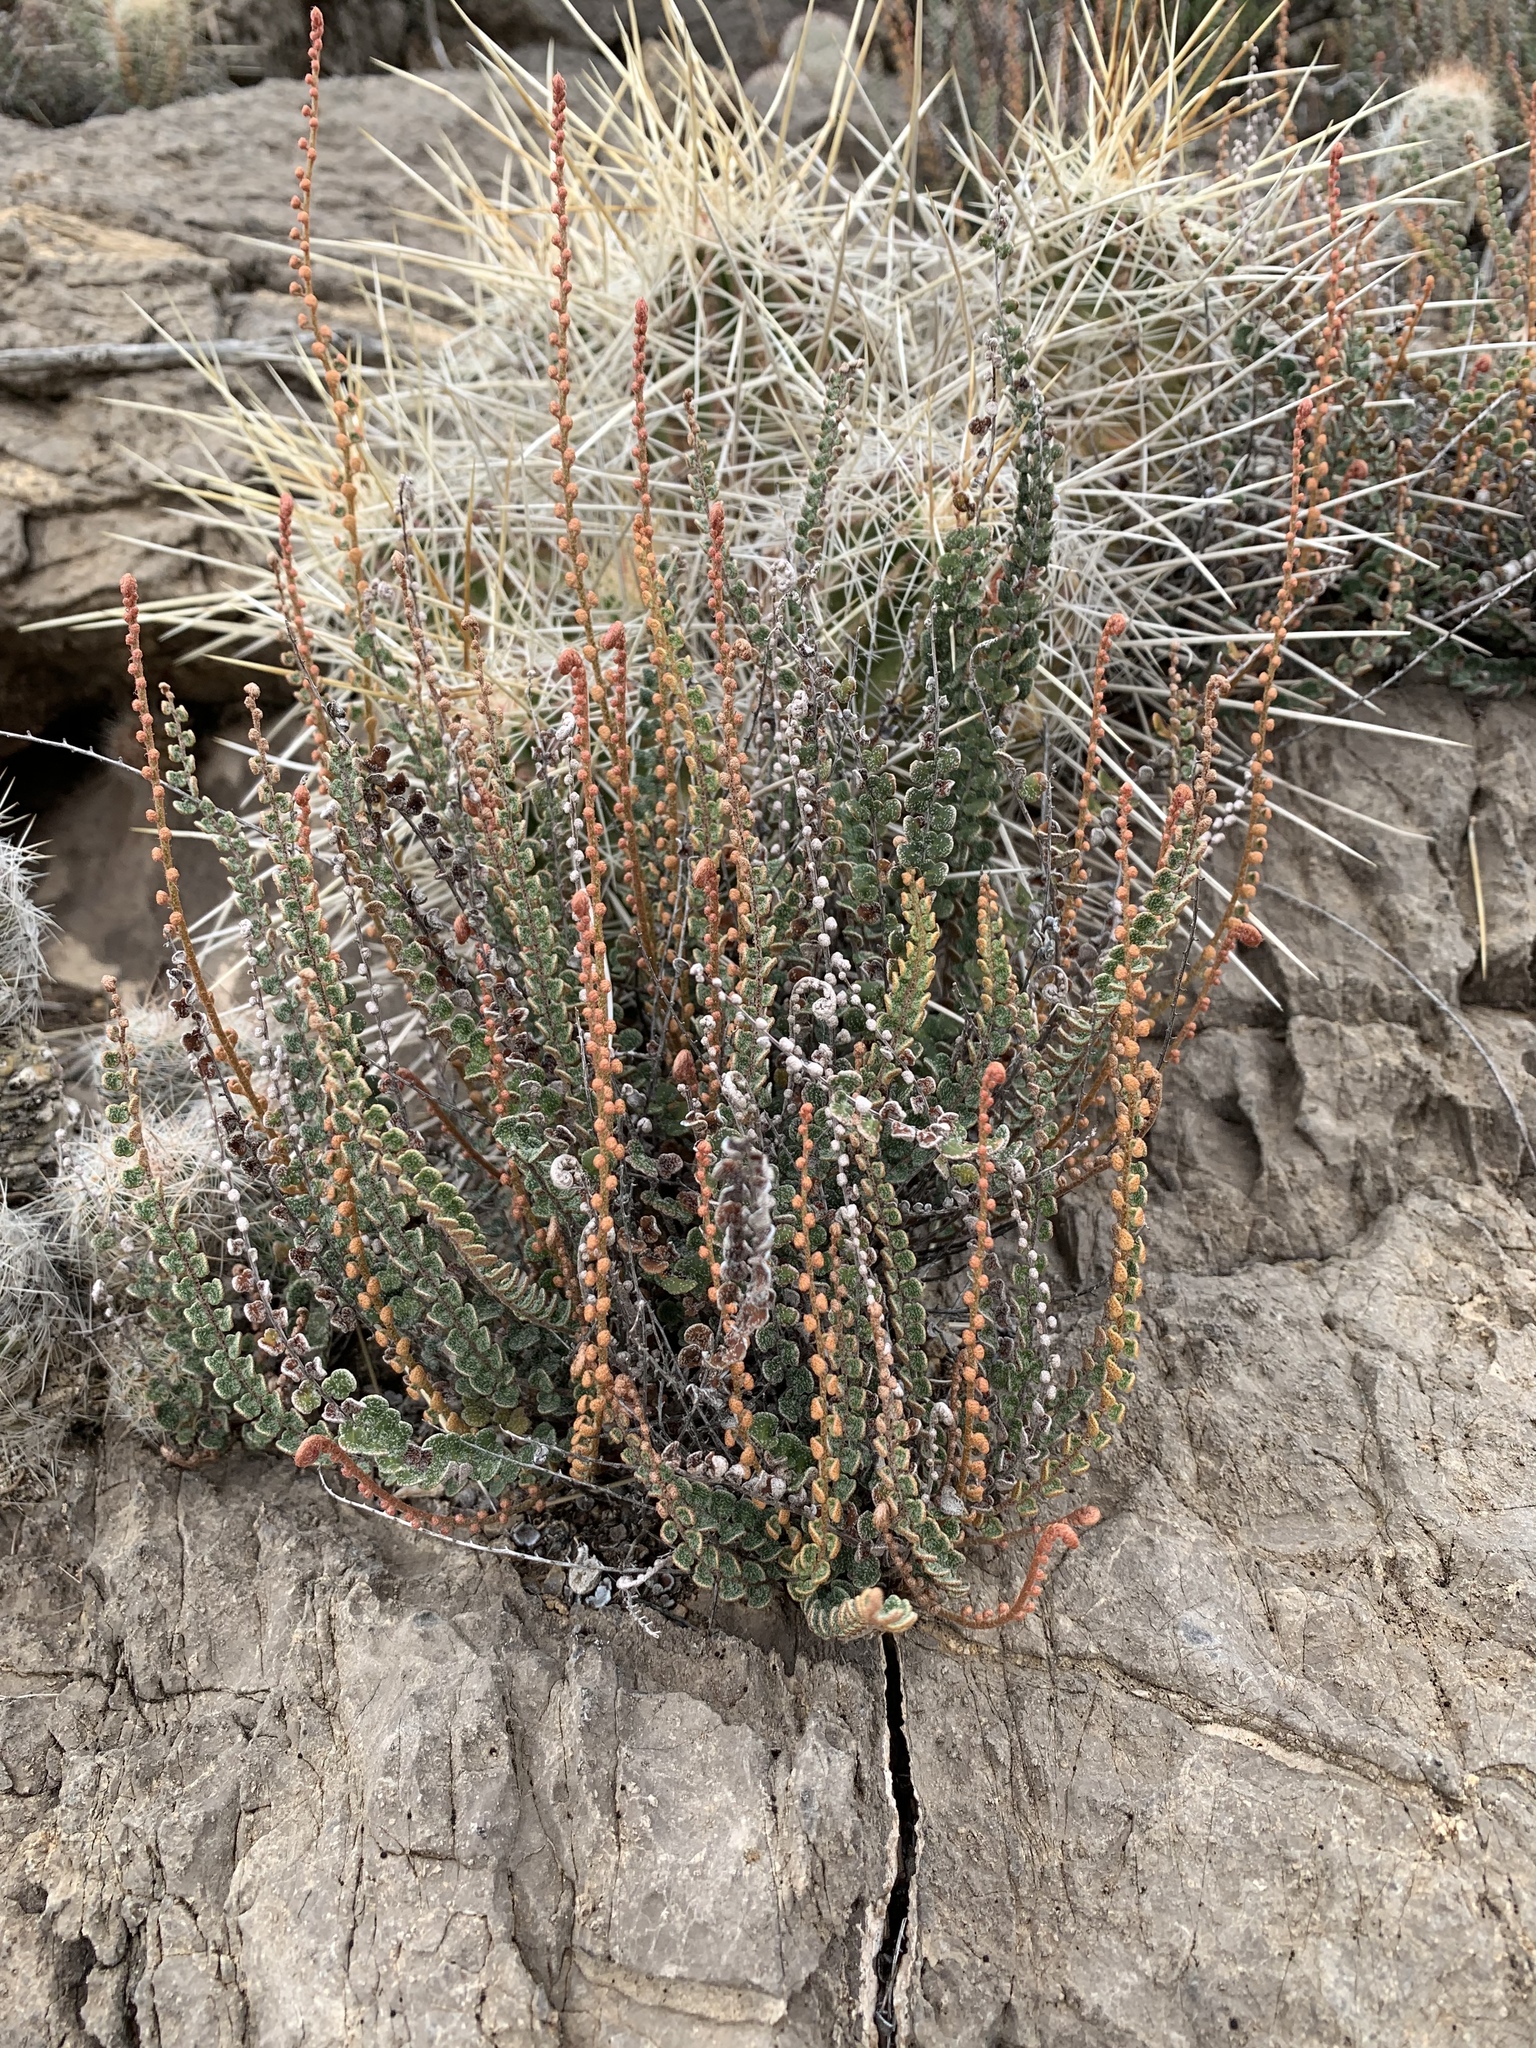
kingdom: Plantae
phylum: Tracheophyta
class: Polypodiopsida
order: Polypodiales
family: Pteridaceae
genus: Astrolepis
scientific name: Astrolepis cochisensis
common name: Scaly cloak fern
